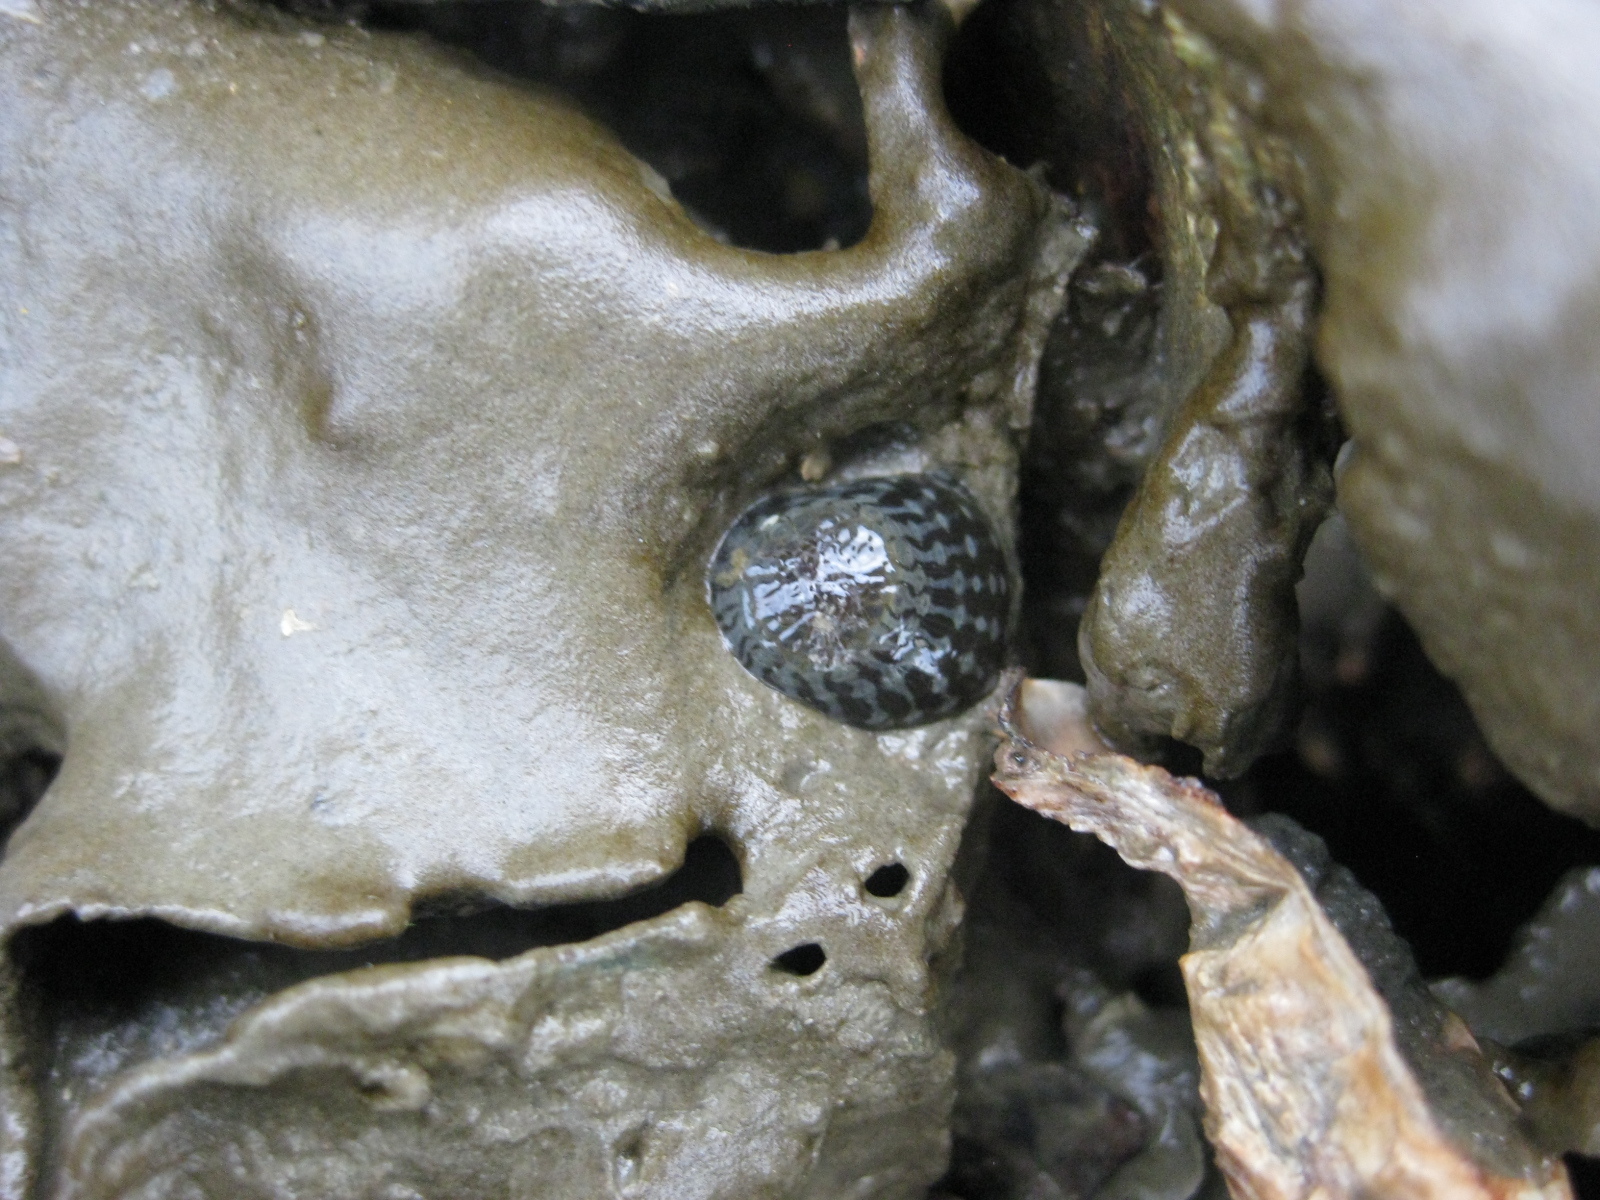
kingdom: Animalia
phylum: Cnidaria
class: Anthozoa
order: Actiniaria
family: Actiniidae
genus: Anthopleura
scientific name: Anthopleura hermaphroditica
